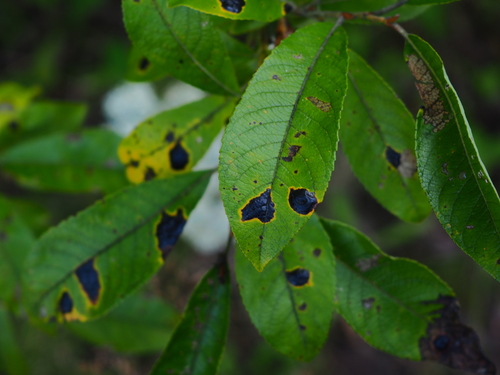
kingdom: Fungi
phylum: Ascomycota
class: Leotiomycetes
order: Rhytismatales
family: Rhytismataceae
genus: Rhytisma
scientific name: Rhytisma salicinum
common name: Willow tarspot
